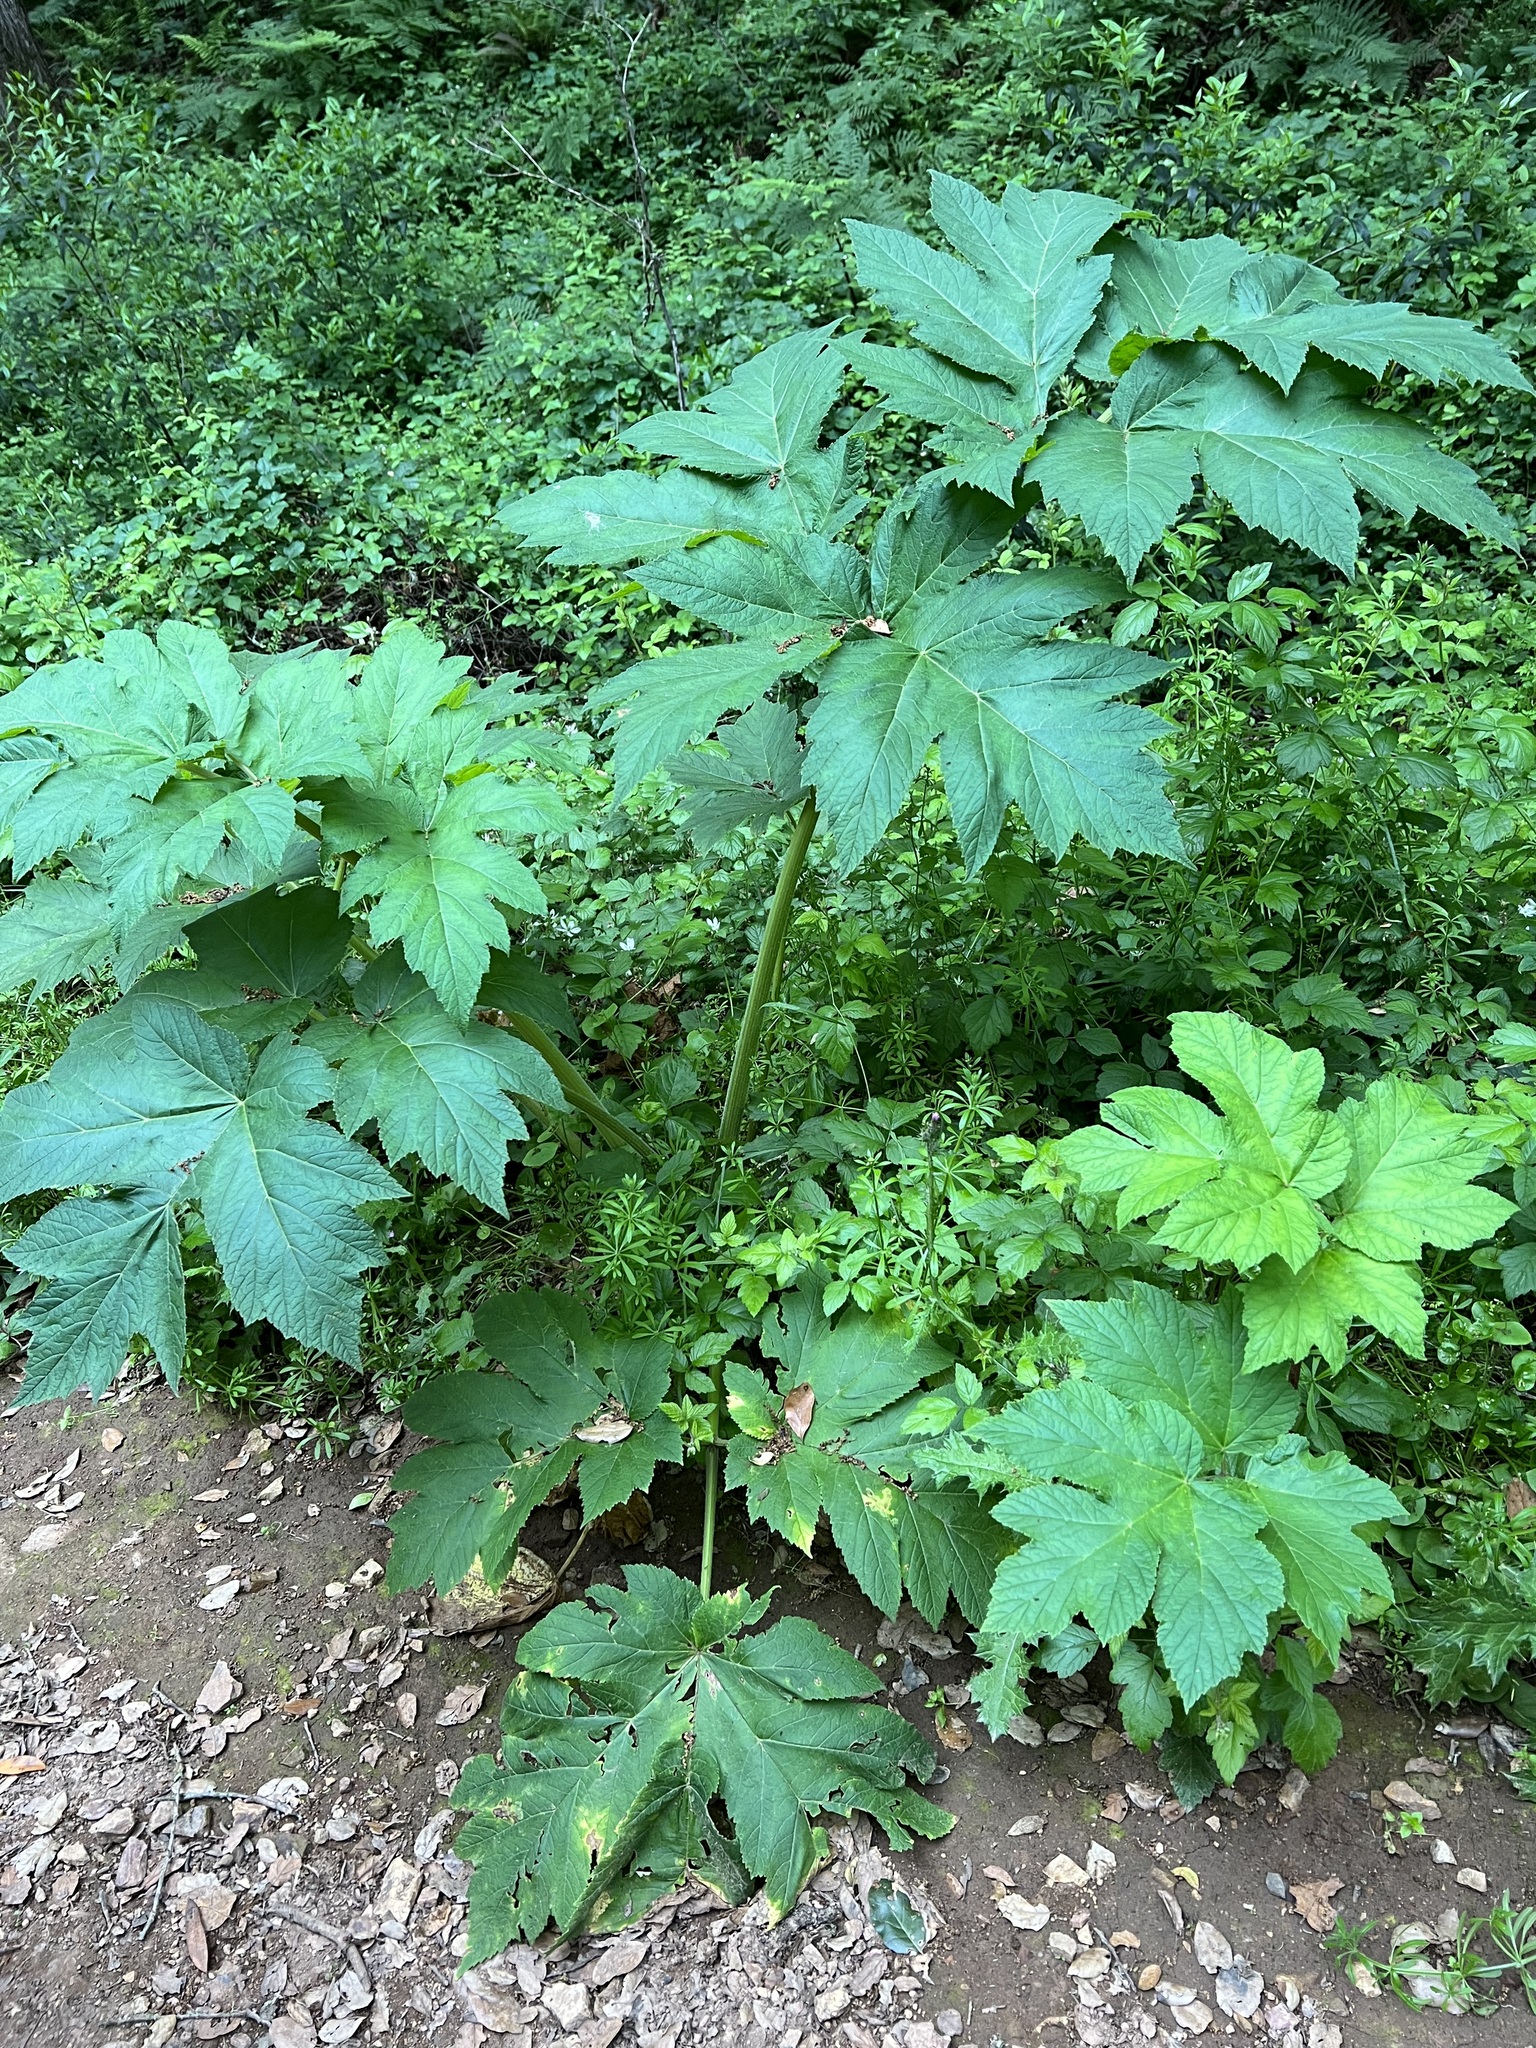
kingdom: Plantae
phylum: Tracheophyta
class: Magnoliopsida
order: Apiales
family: Apiaceae
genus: Heracleum
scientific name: Heracleum maximum
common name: American cow parsnip
